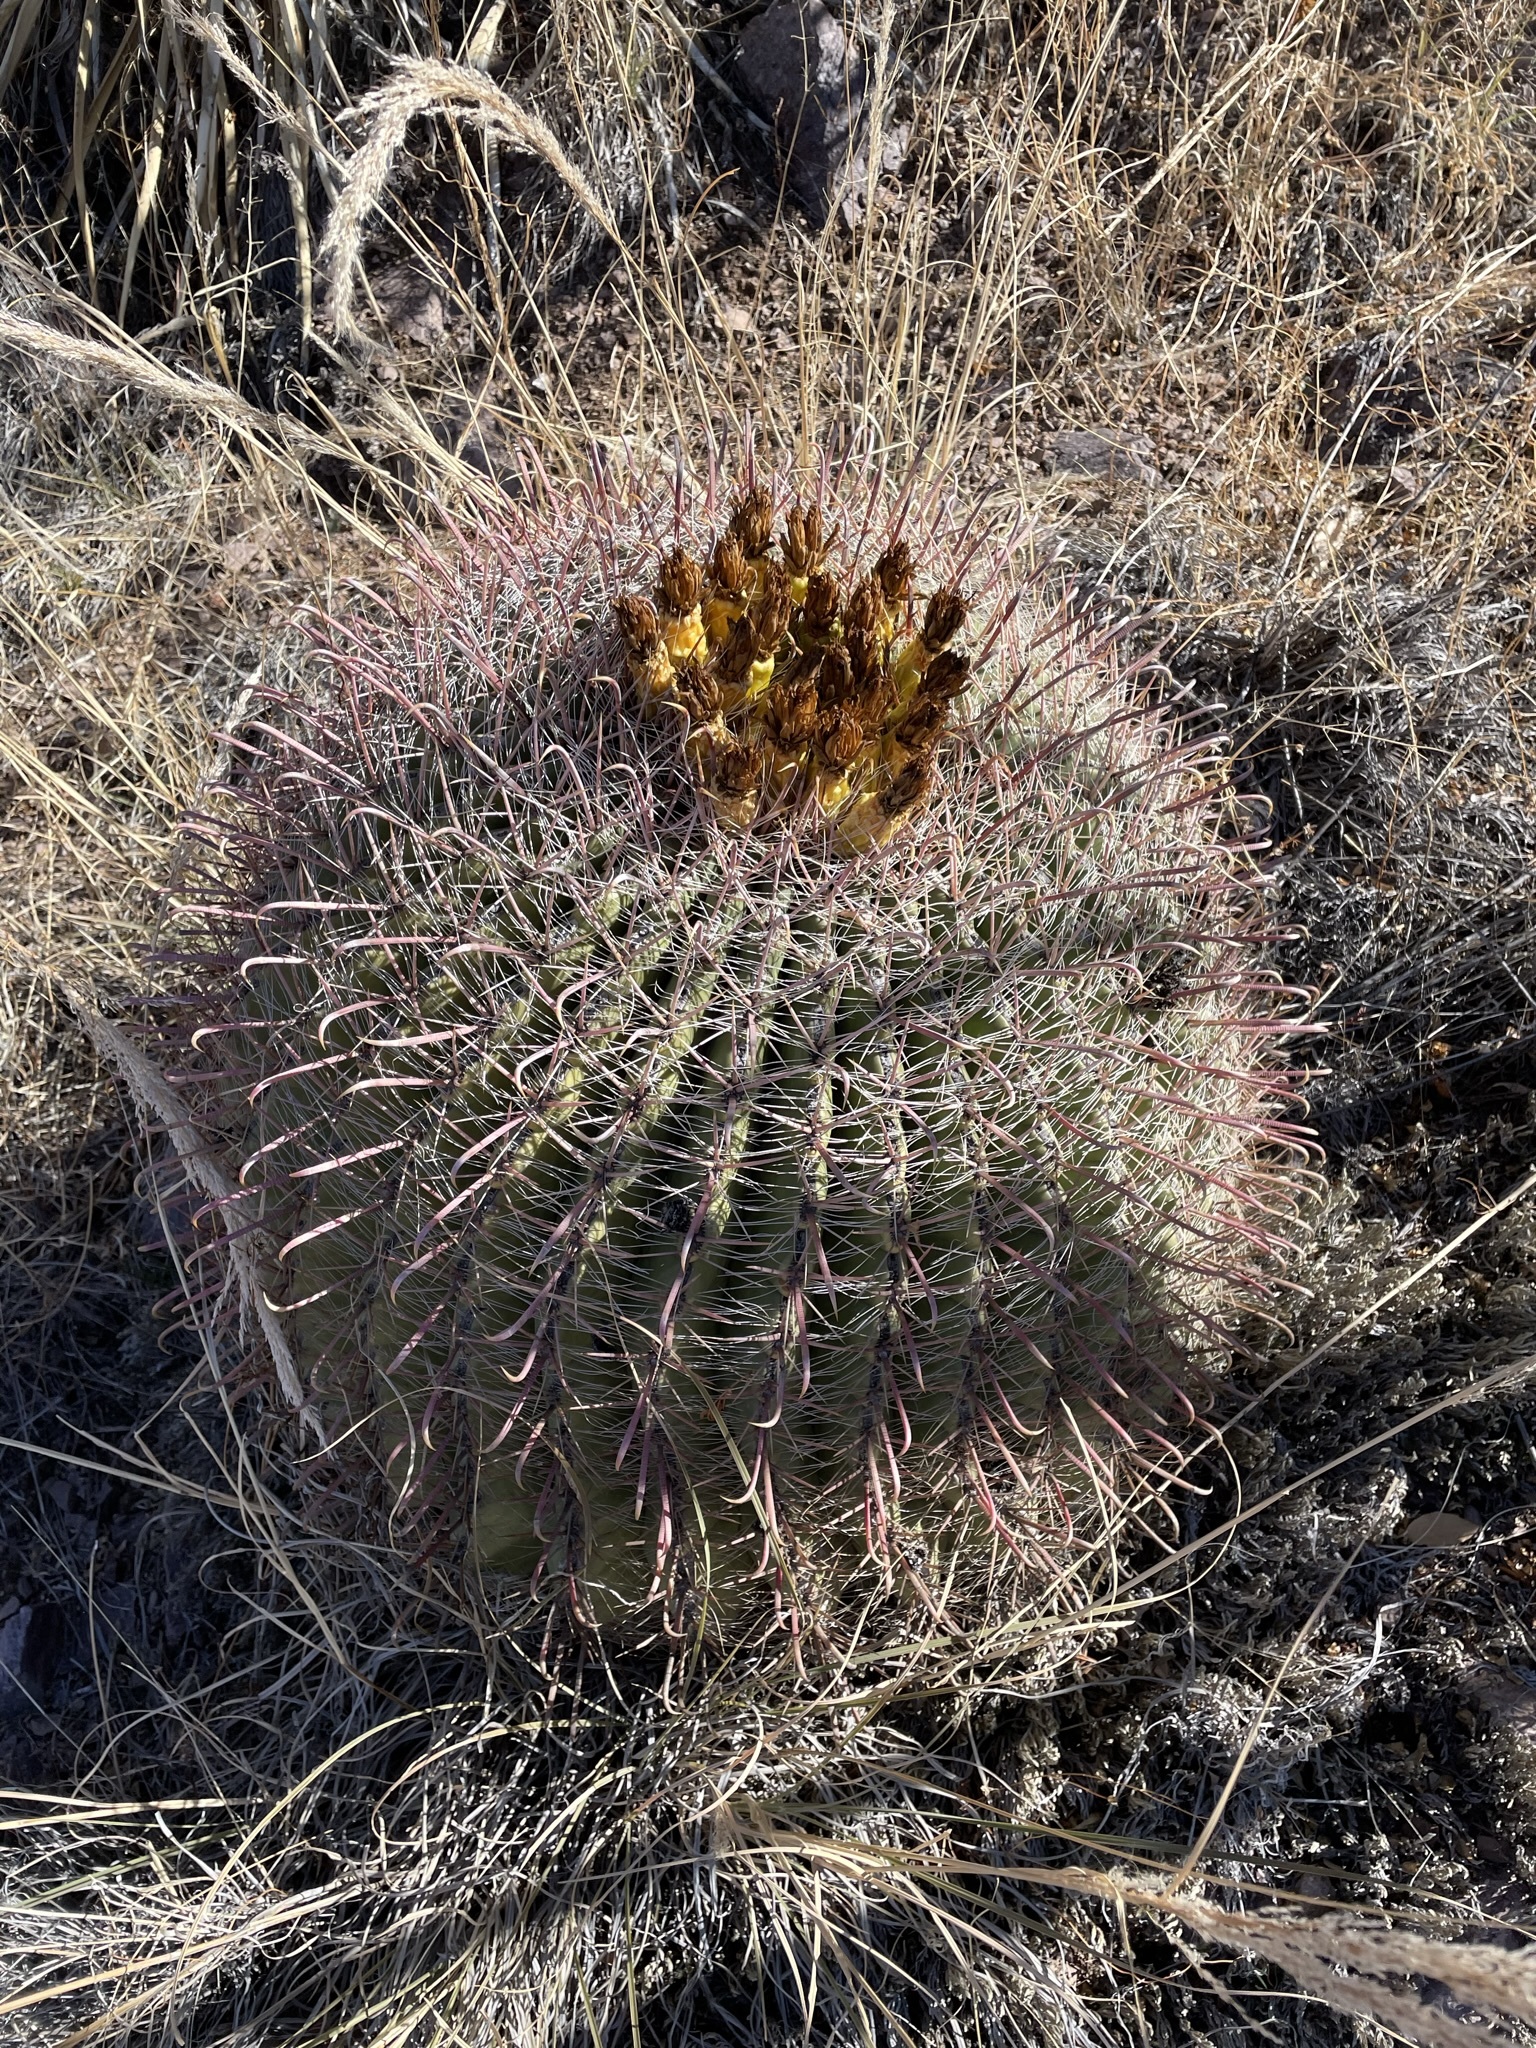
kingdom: Plantae
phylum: Tracheophyta
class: Magnoliopsida
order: Caryophyllales
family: Cactaceae
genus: Ferocactus
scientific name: Ferocactus wislizeni
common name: Candy barrel cactus
